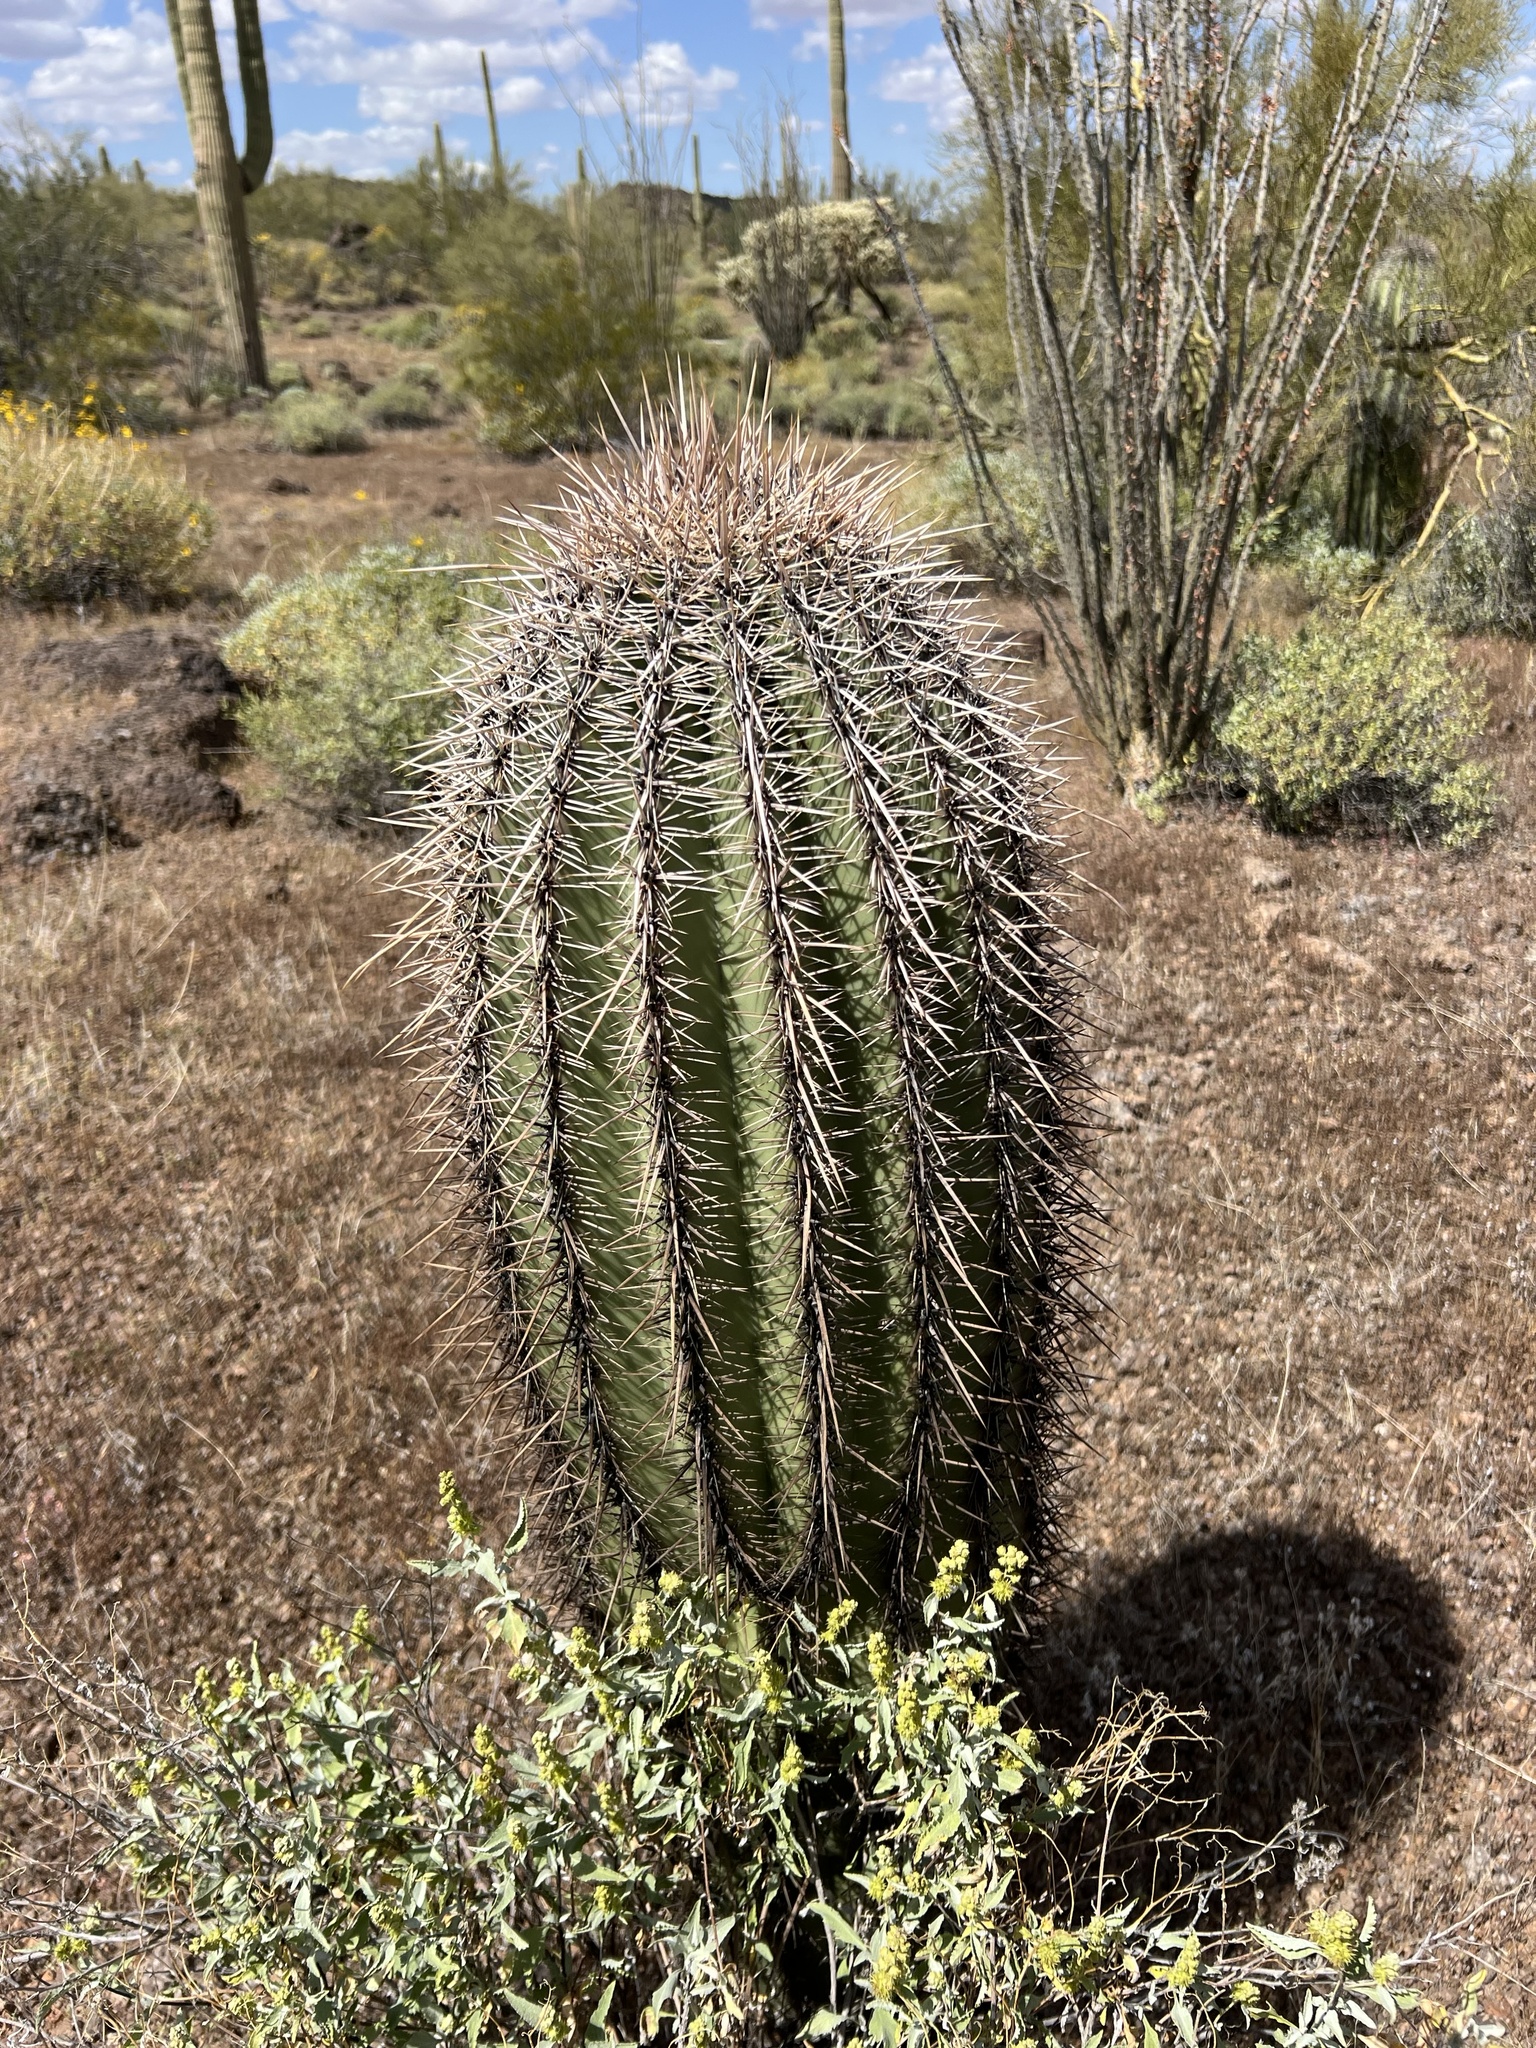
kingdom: Plantae
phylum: Tracheophyta
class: Magnoliopsida
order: Caryophyllales
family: Cactaceae
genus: Carnegiea
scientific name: Carnegiea gigantea
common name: Saguaro
